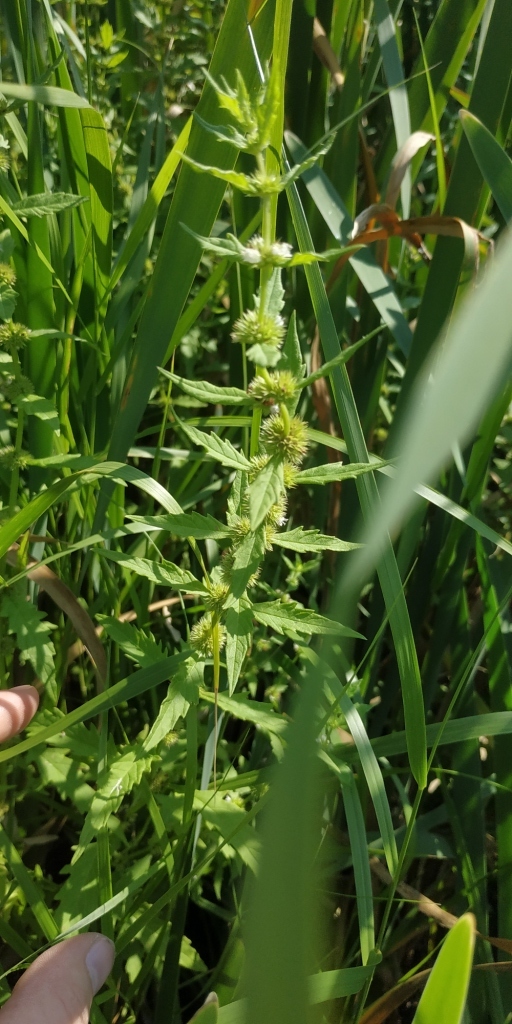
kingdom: Plantae
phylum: Tracheophyta
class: Magnoliopsida
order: Lamiales
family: Lamiaceae
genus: Lycopus
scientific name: Lycopus europaeus
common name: European bugleweed
